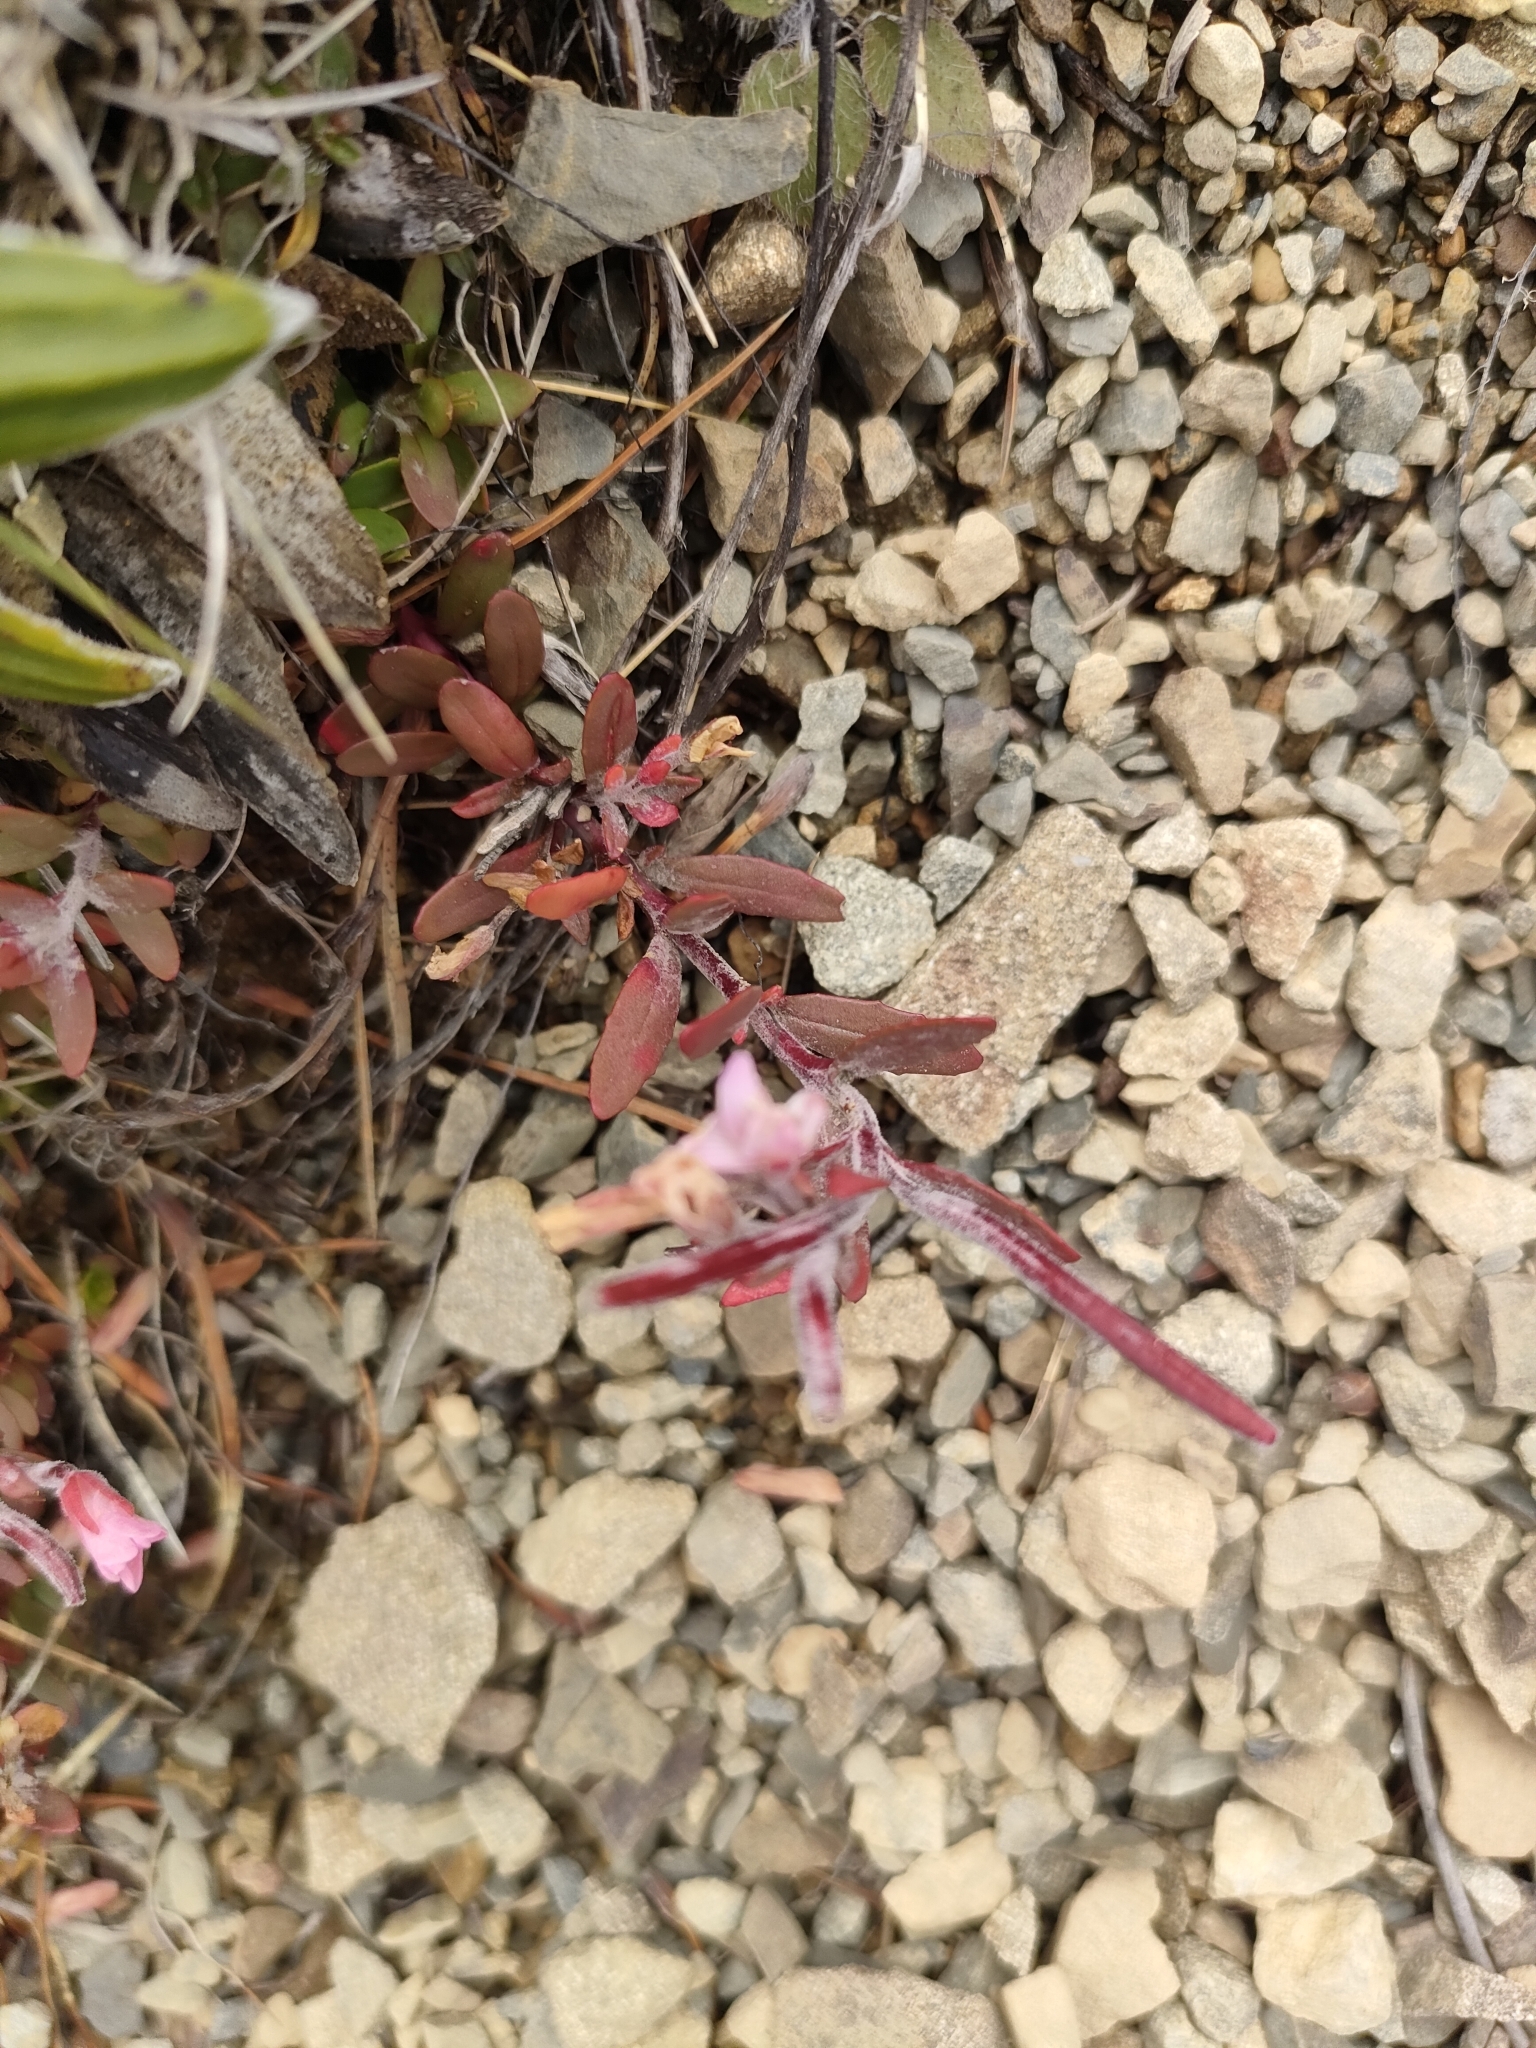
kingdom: Plantae
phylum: Tracheophyta
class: Magnoliopsida
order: Myrtales
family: Onagraceae
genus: Epilobium
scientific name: Epilobium hectorii
